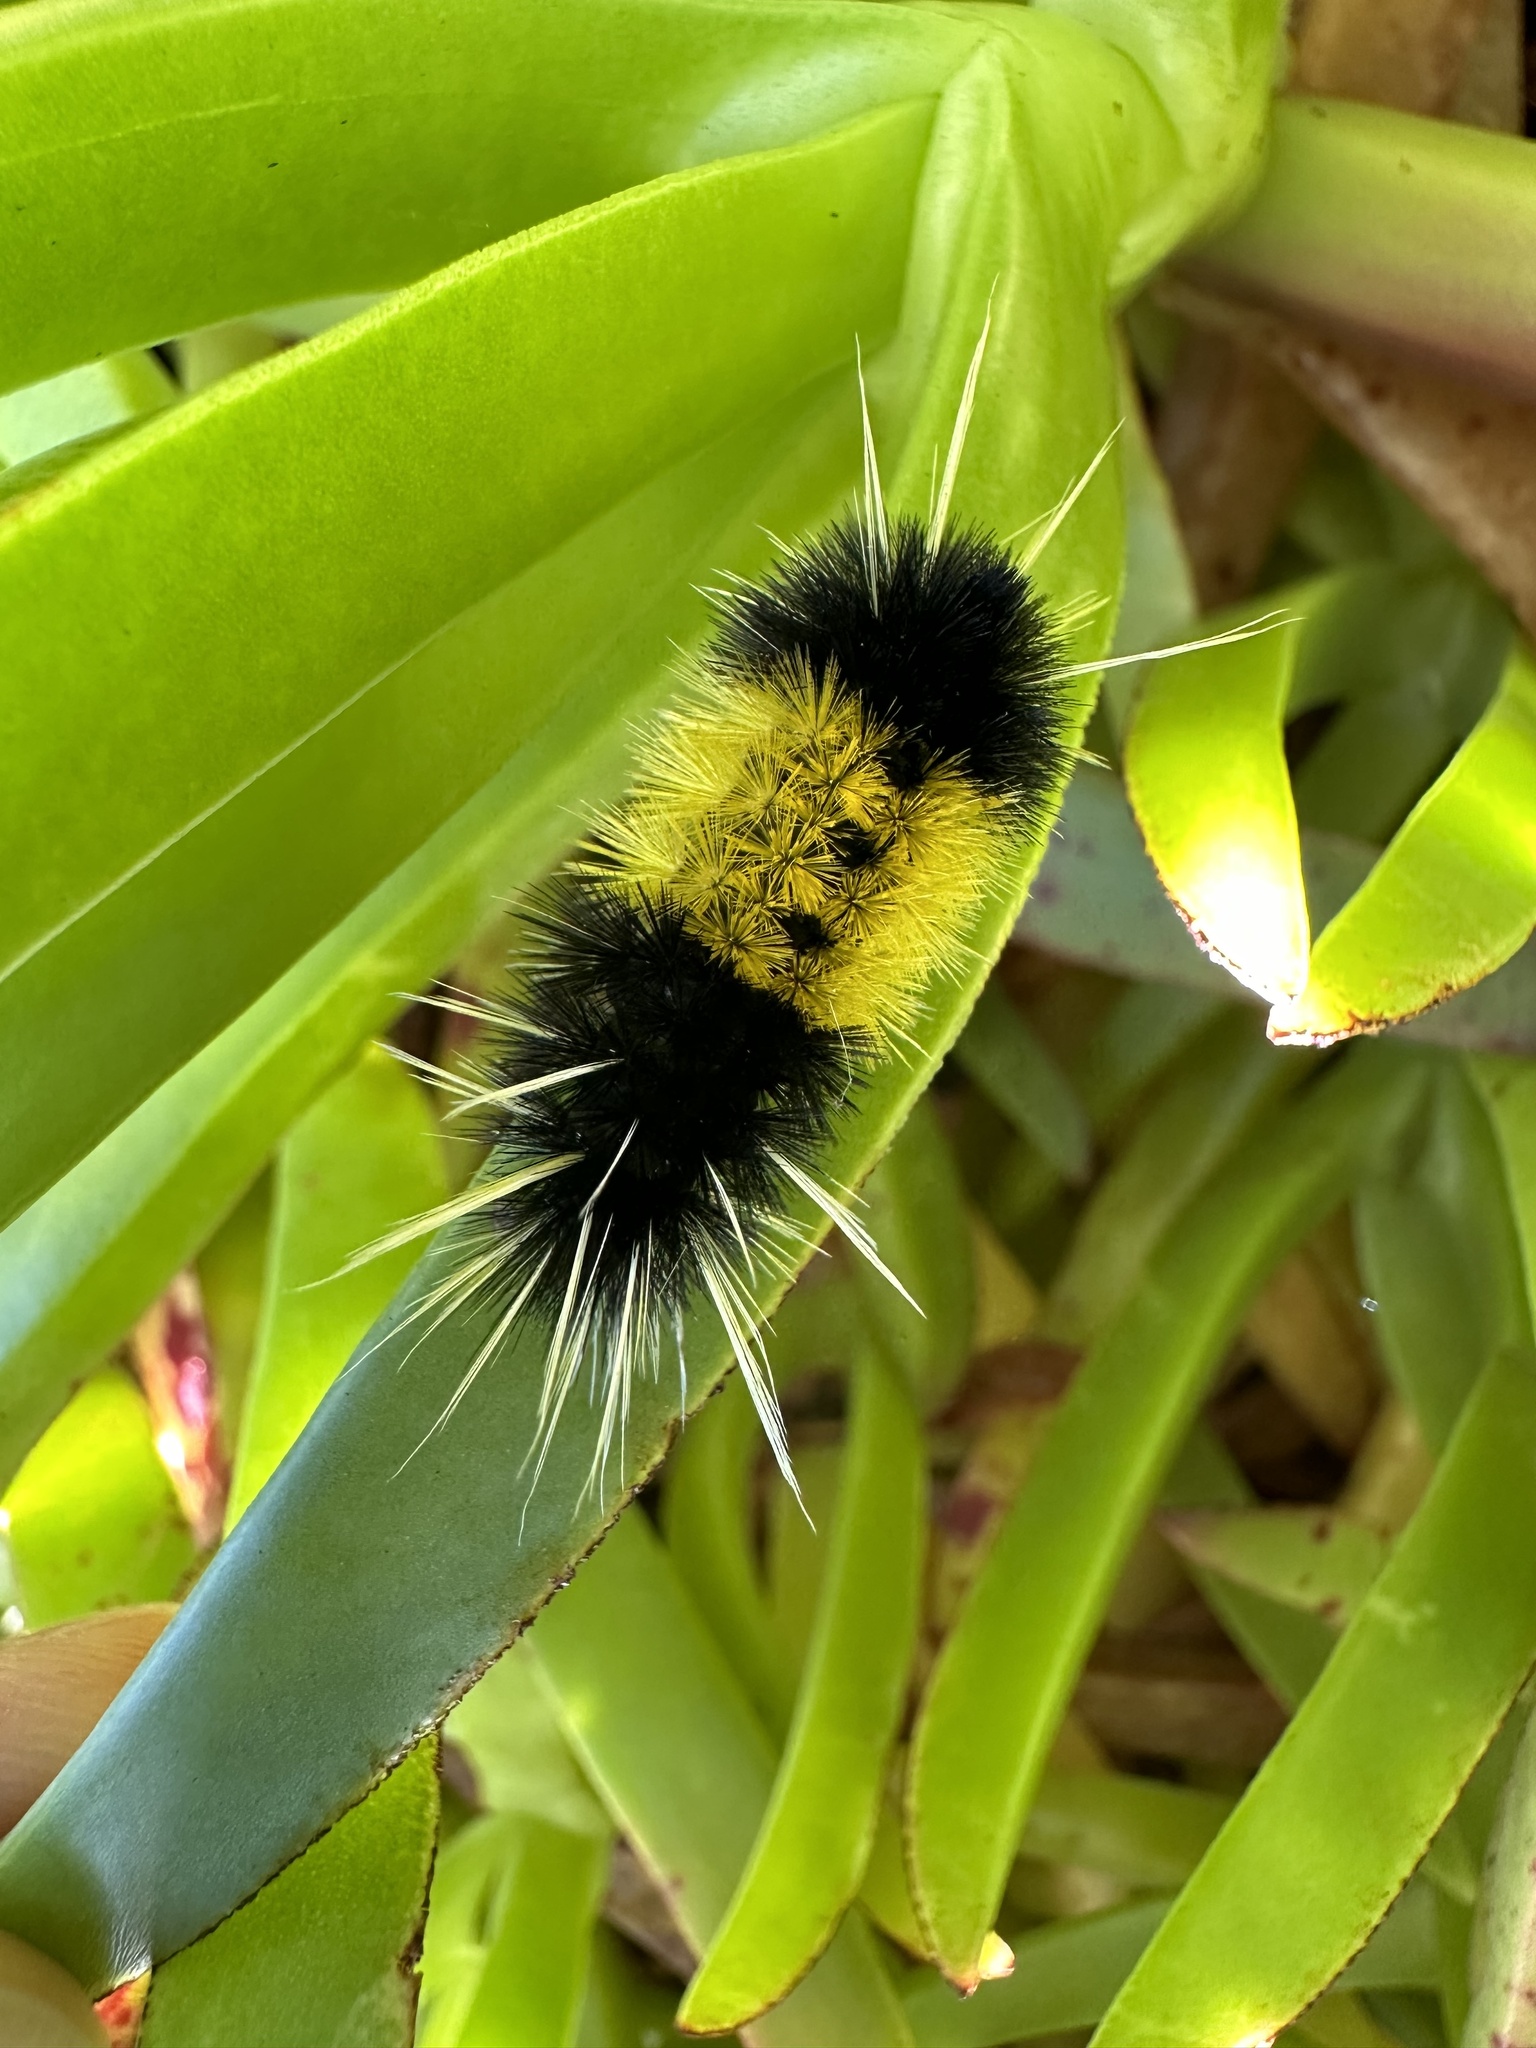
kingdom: Animalia
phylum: Arthropoda
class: Insecta
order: Lepidoptera
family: Erebidae
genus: Lophocampa
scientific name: Lophocampa maculata
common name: Spotted tussock moth
